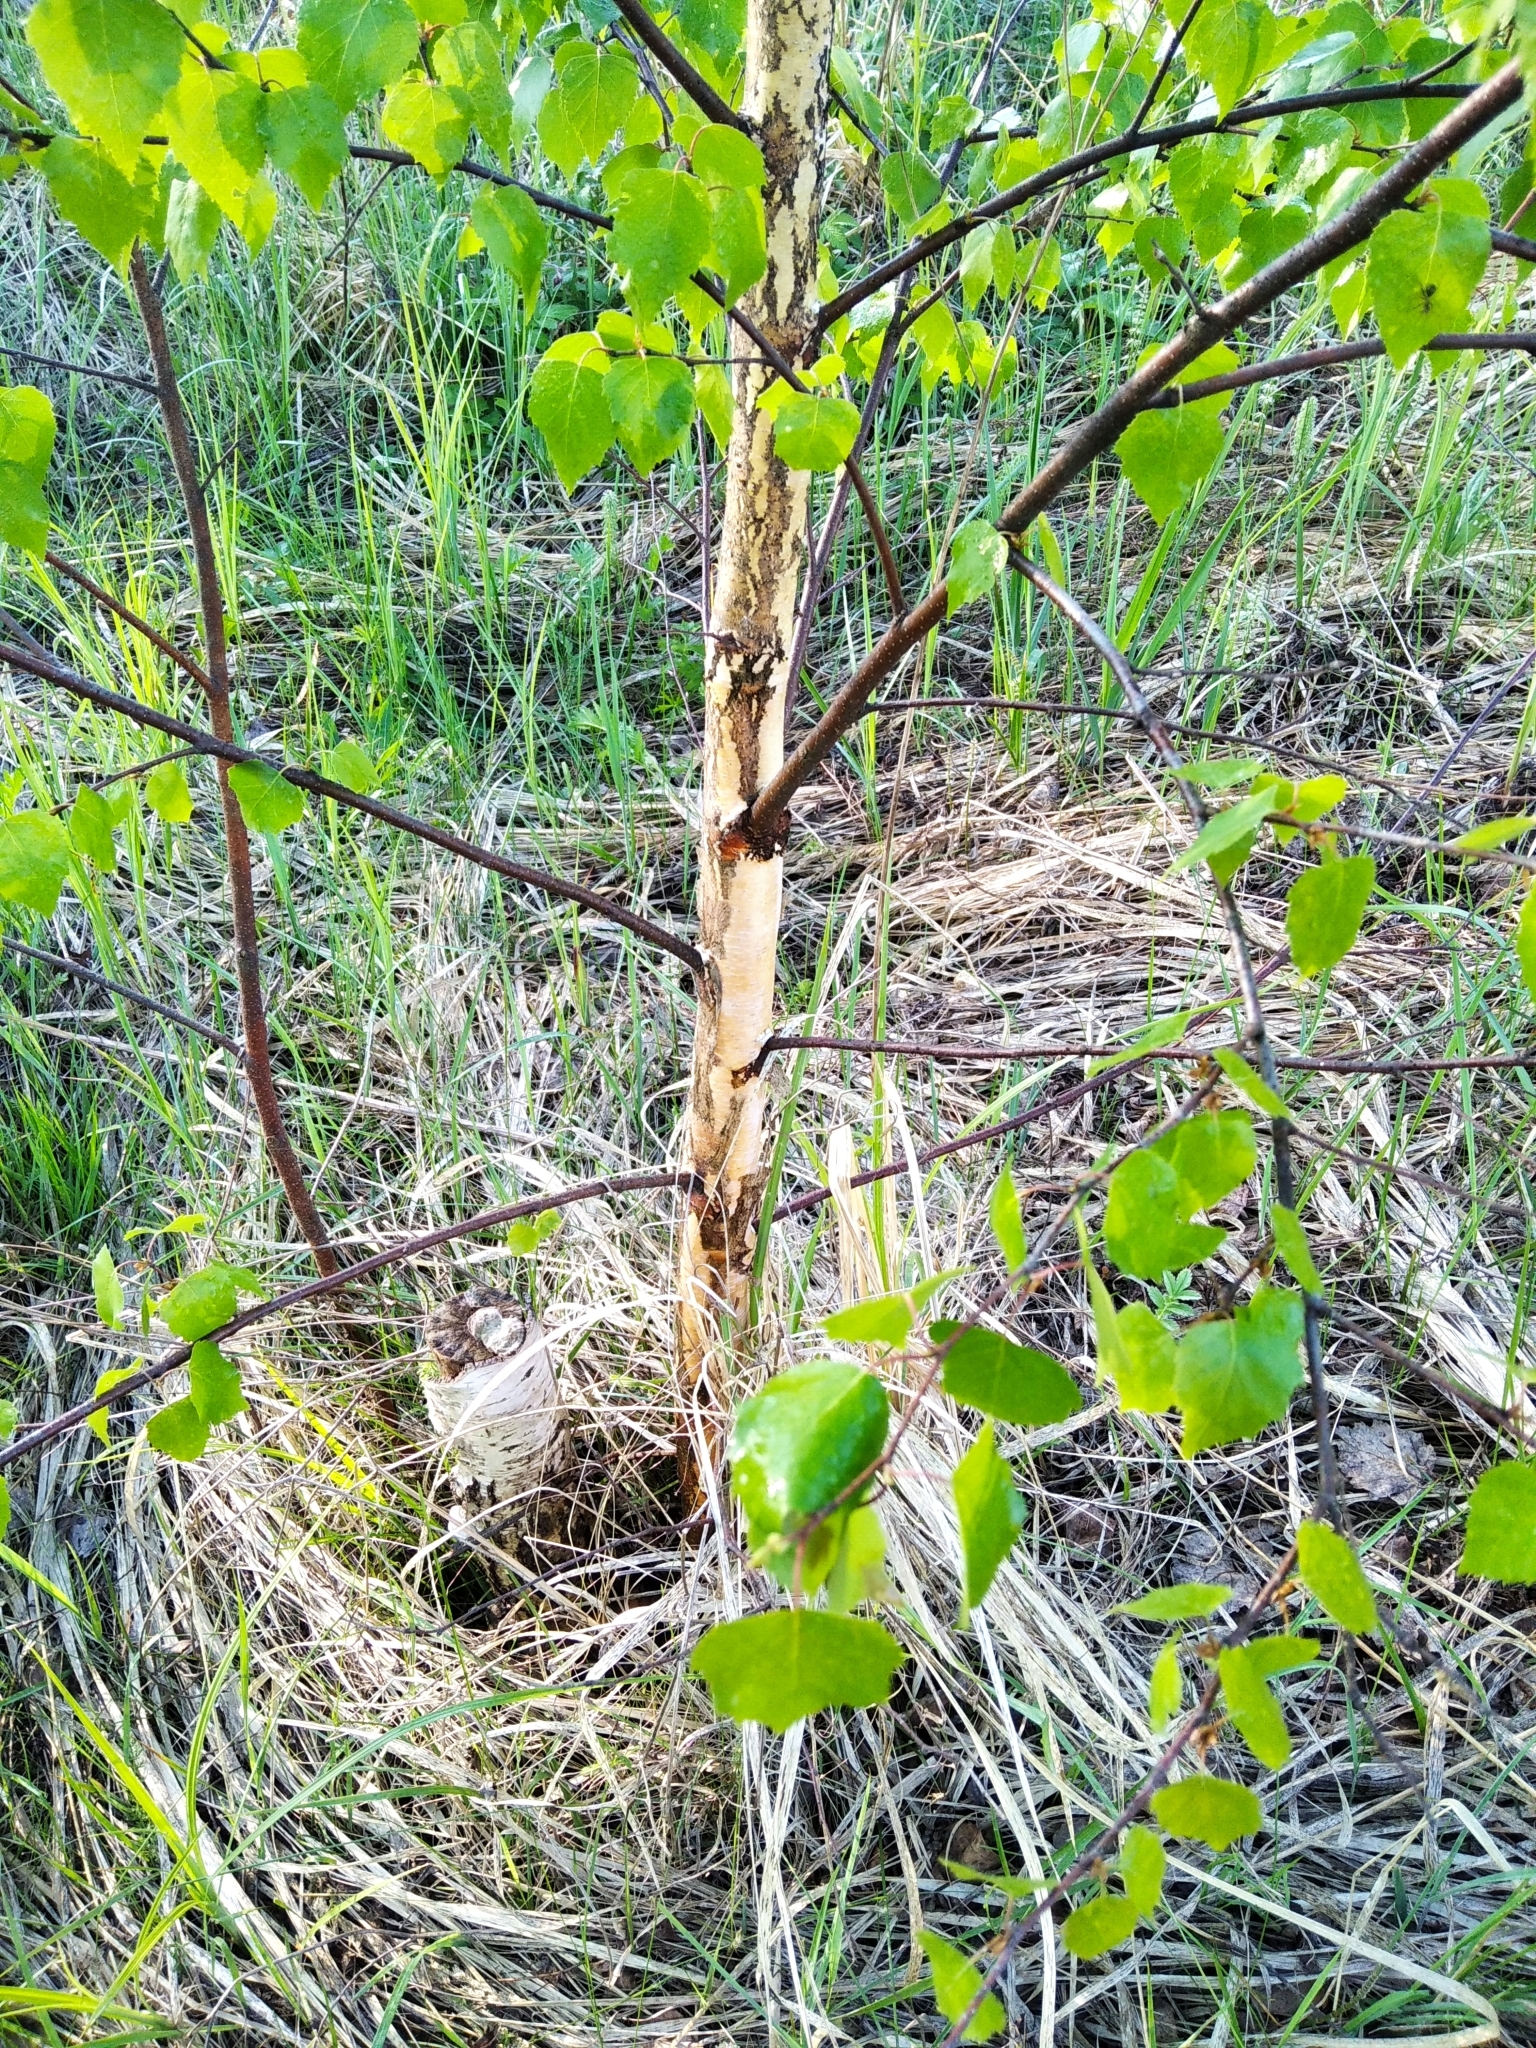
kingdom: Plantae
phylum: Tracheophyta
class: Magnoliopsida
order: Fagales
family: Betulaceae
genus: Betula
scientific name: Betula pendula
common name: Silver birch
